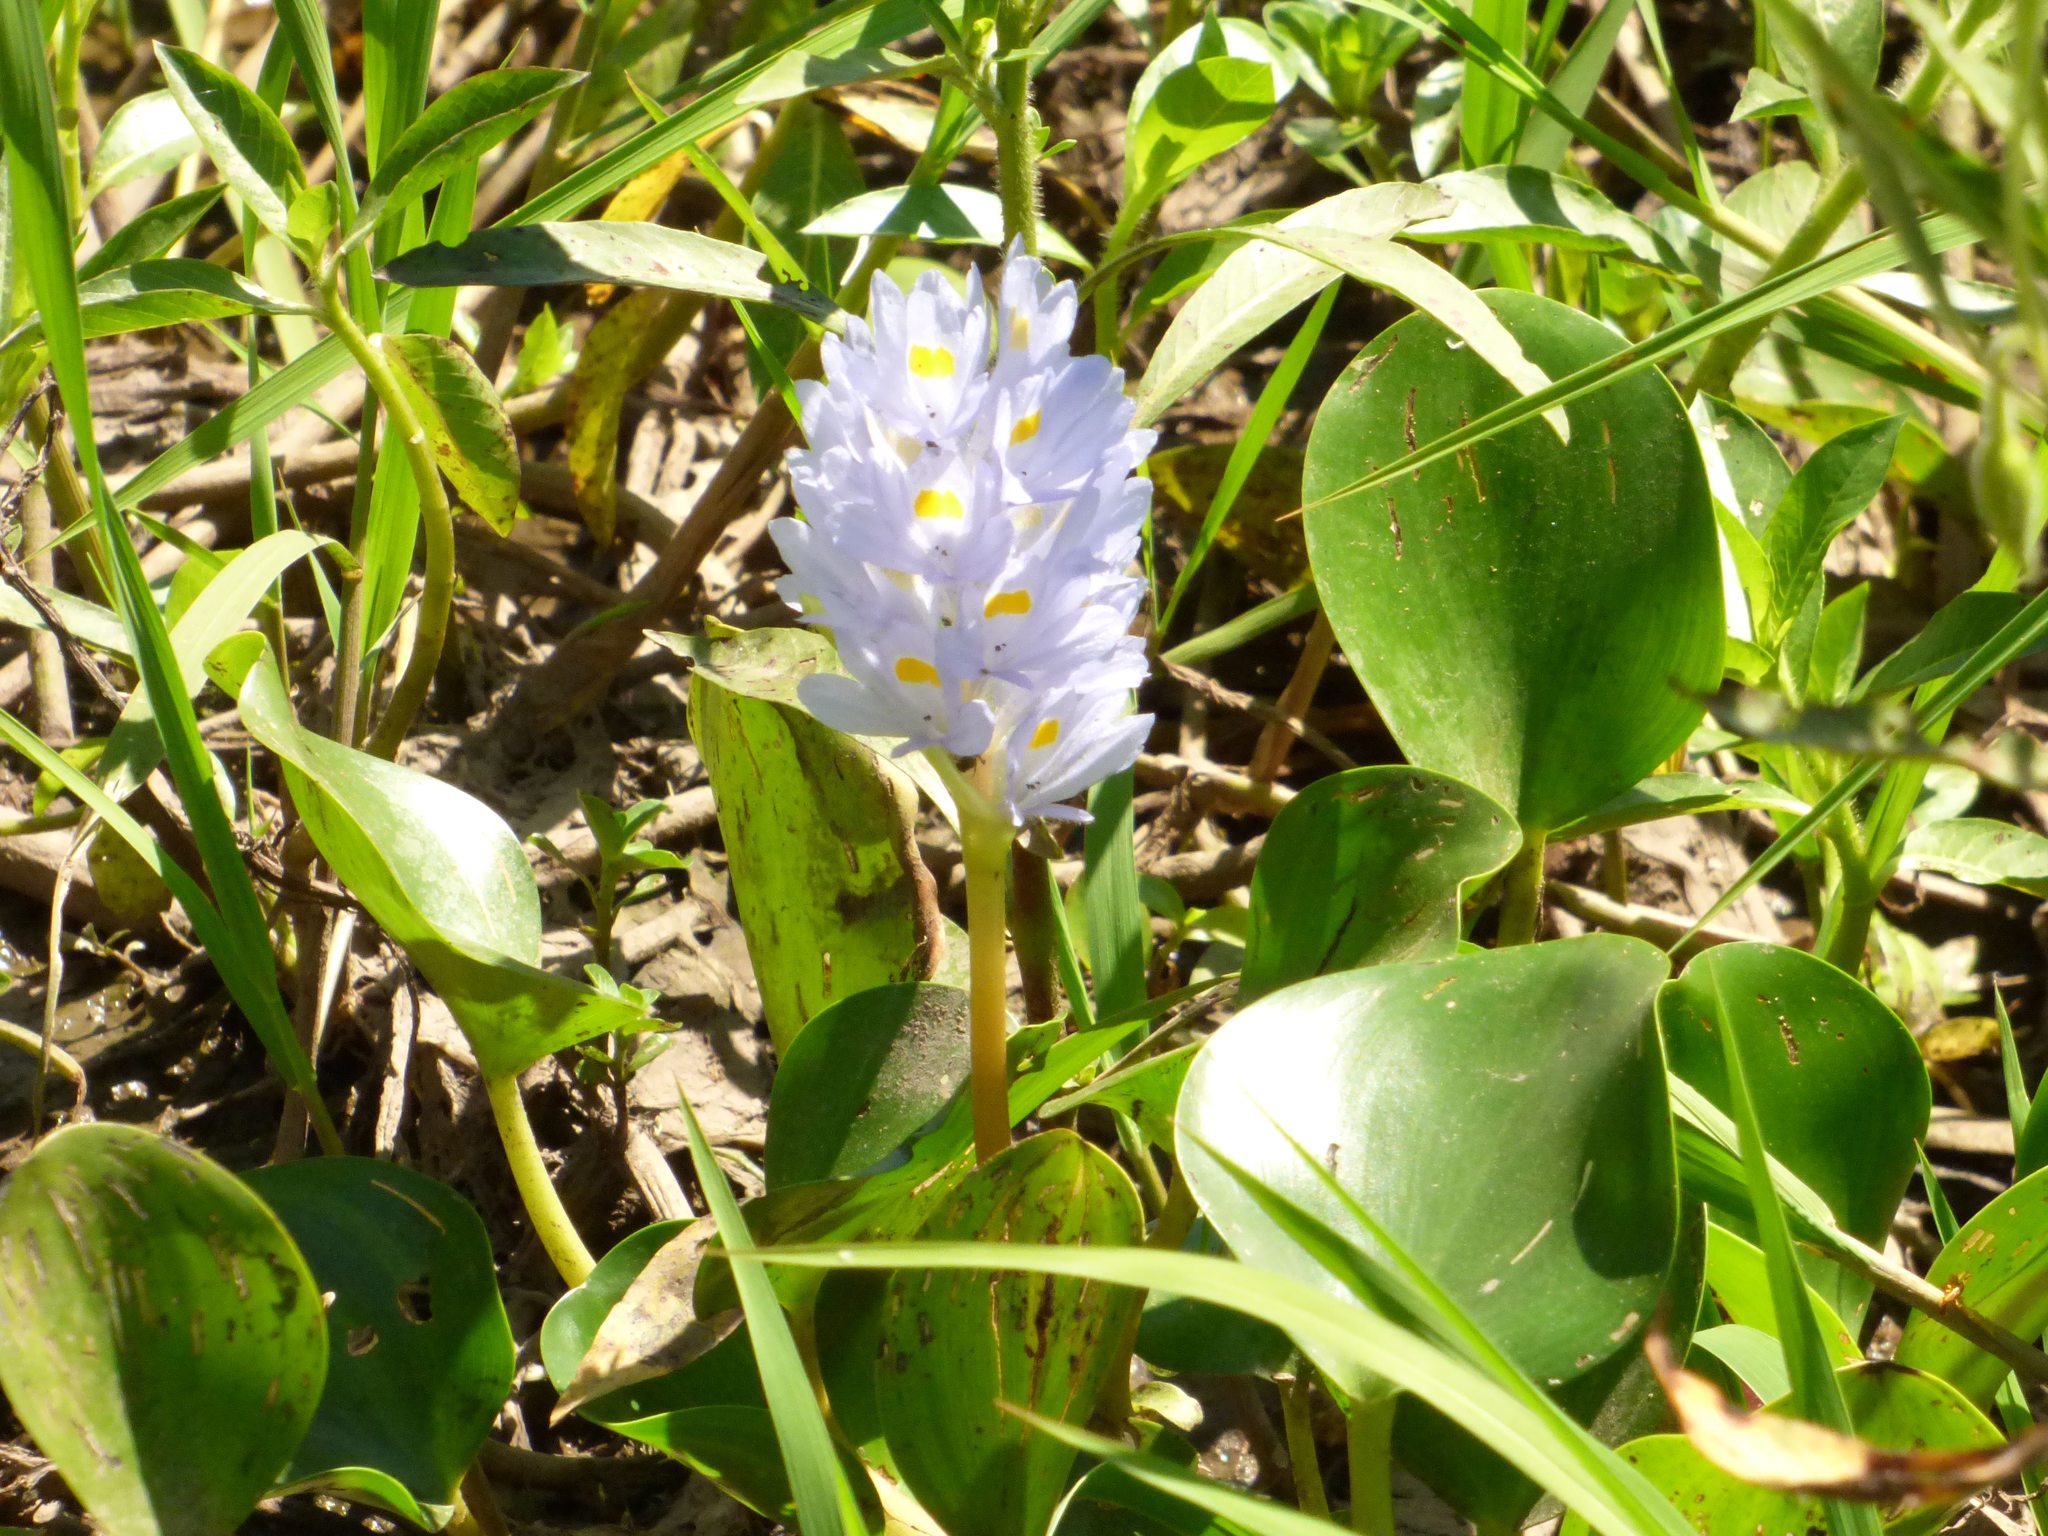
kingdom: Plantae
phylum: Tracheophyta
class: Liliopsida
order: Commelinales
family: Pontederiaceae
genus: Pontederia
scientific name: Pontederia rotundifolia
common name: Tropical pickerel-weed
